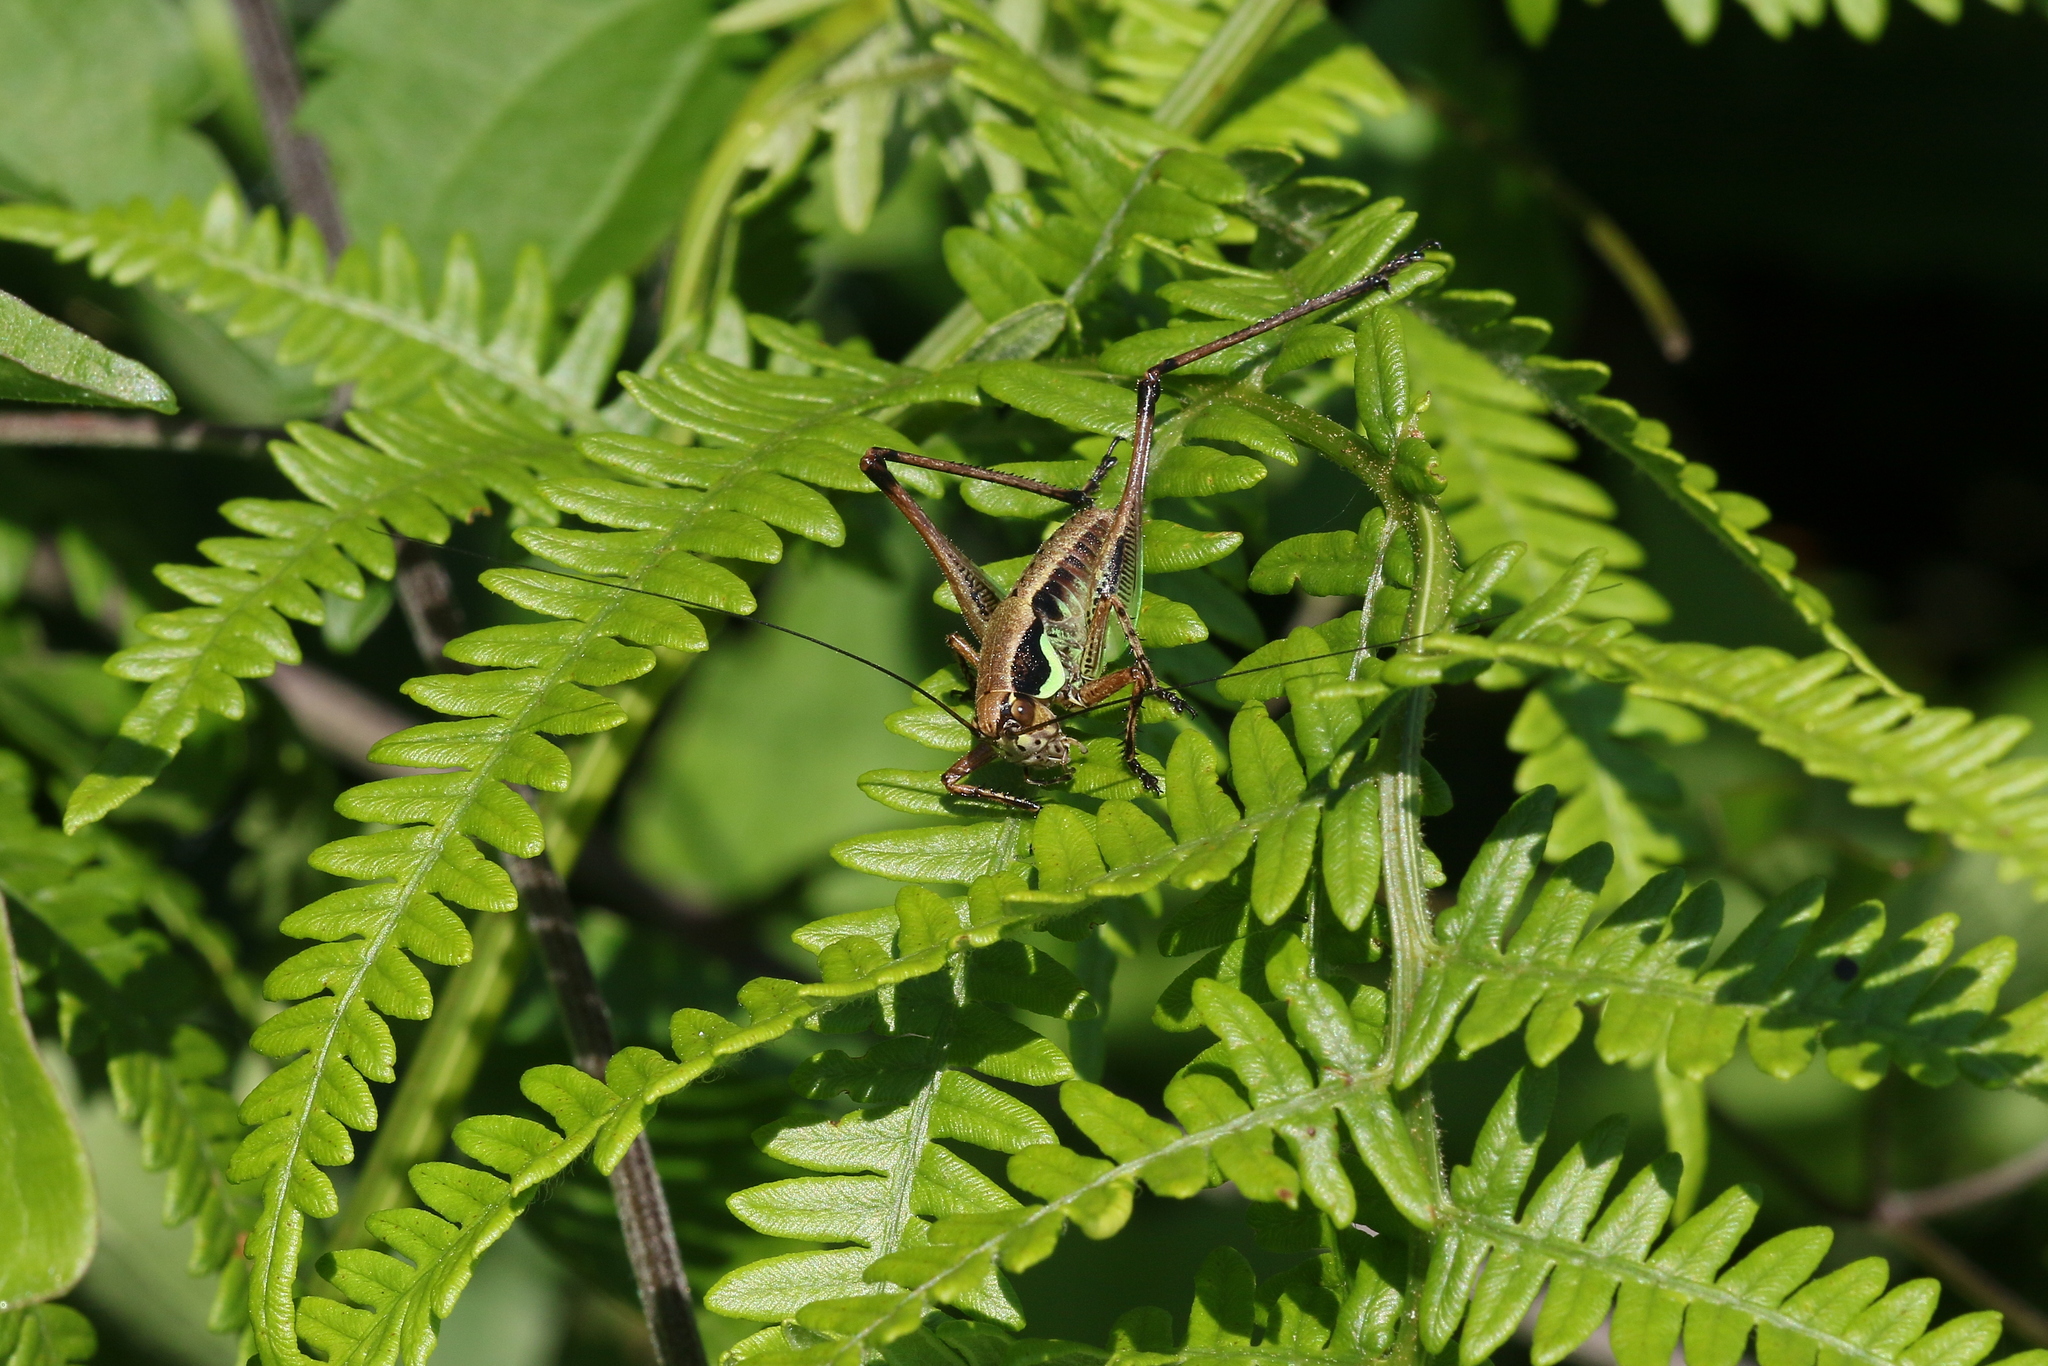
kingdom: Animalia
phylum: Arthropoda
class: Insecta
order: Orthoptera
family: Tettigoniidae
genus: Eupholidoptera
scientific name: Eupholidoptera smyrnensis
